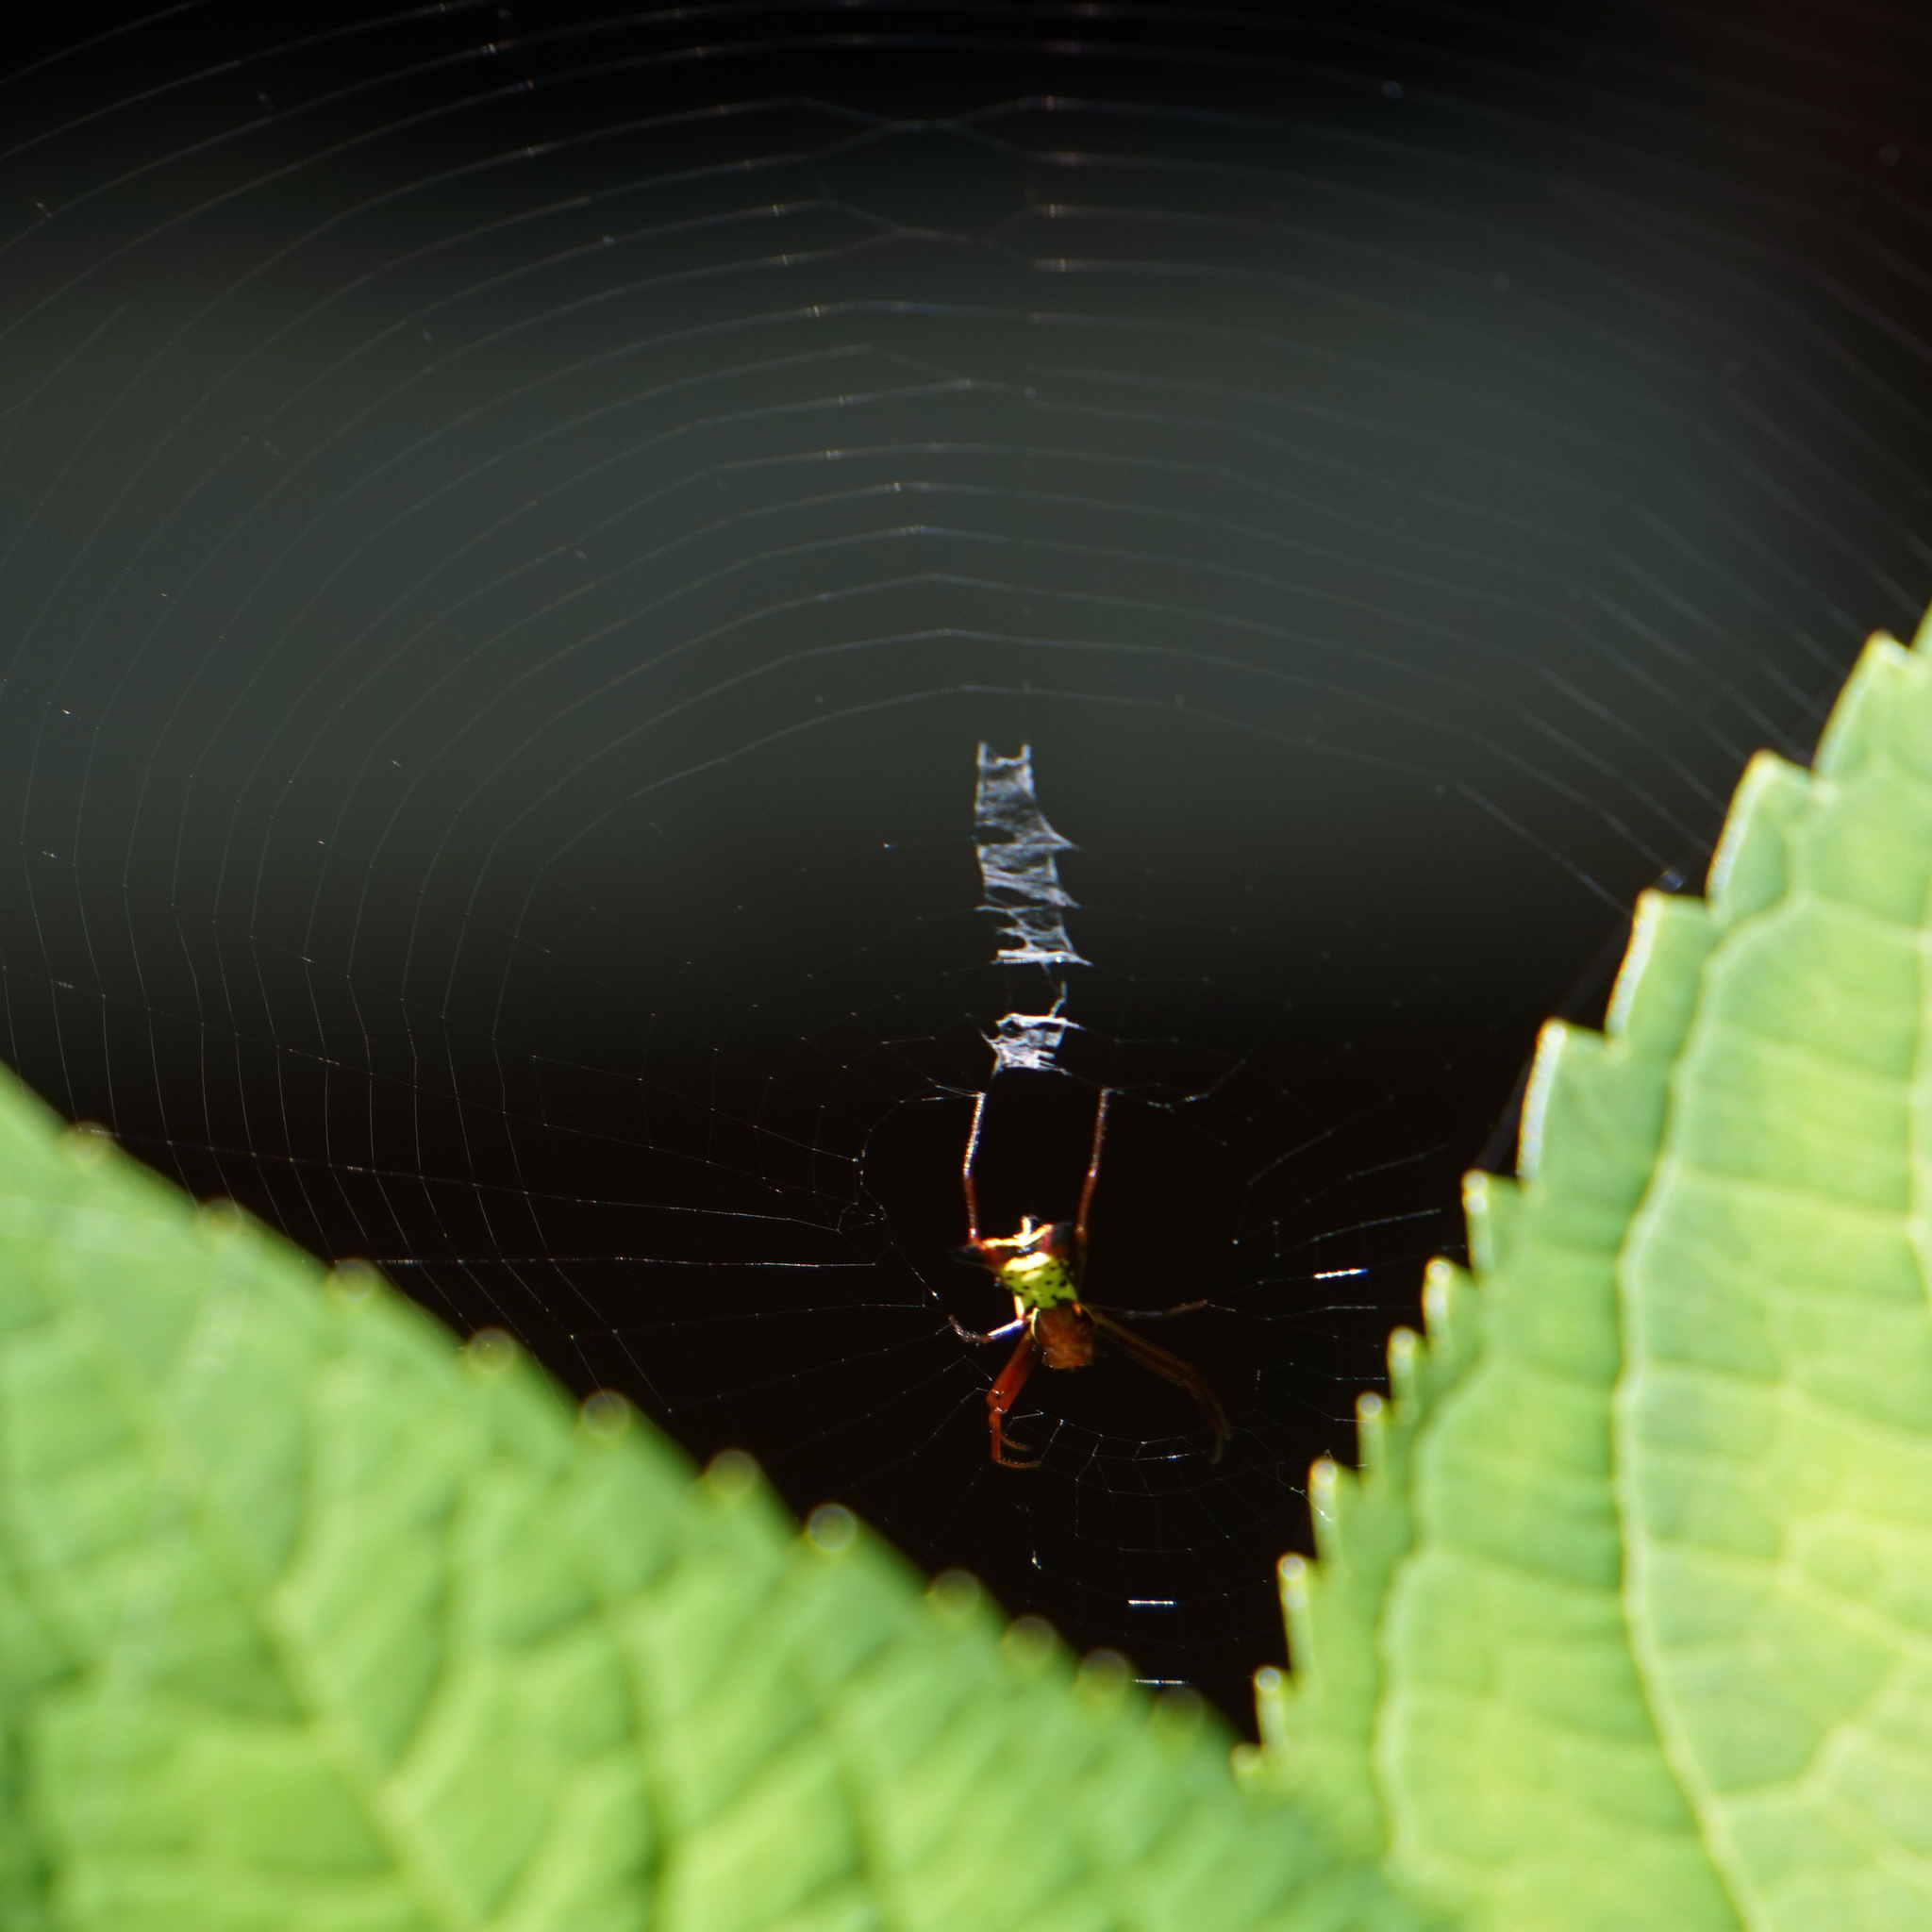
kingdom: Animalia
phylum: Arthropoda
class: Arachnida
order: Araneae
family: Araneidae
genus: Micrathena
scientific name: Micrathena sagittata
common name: Orb weavers
